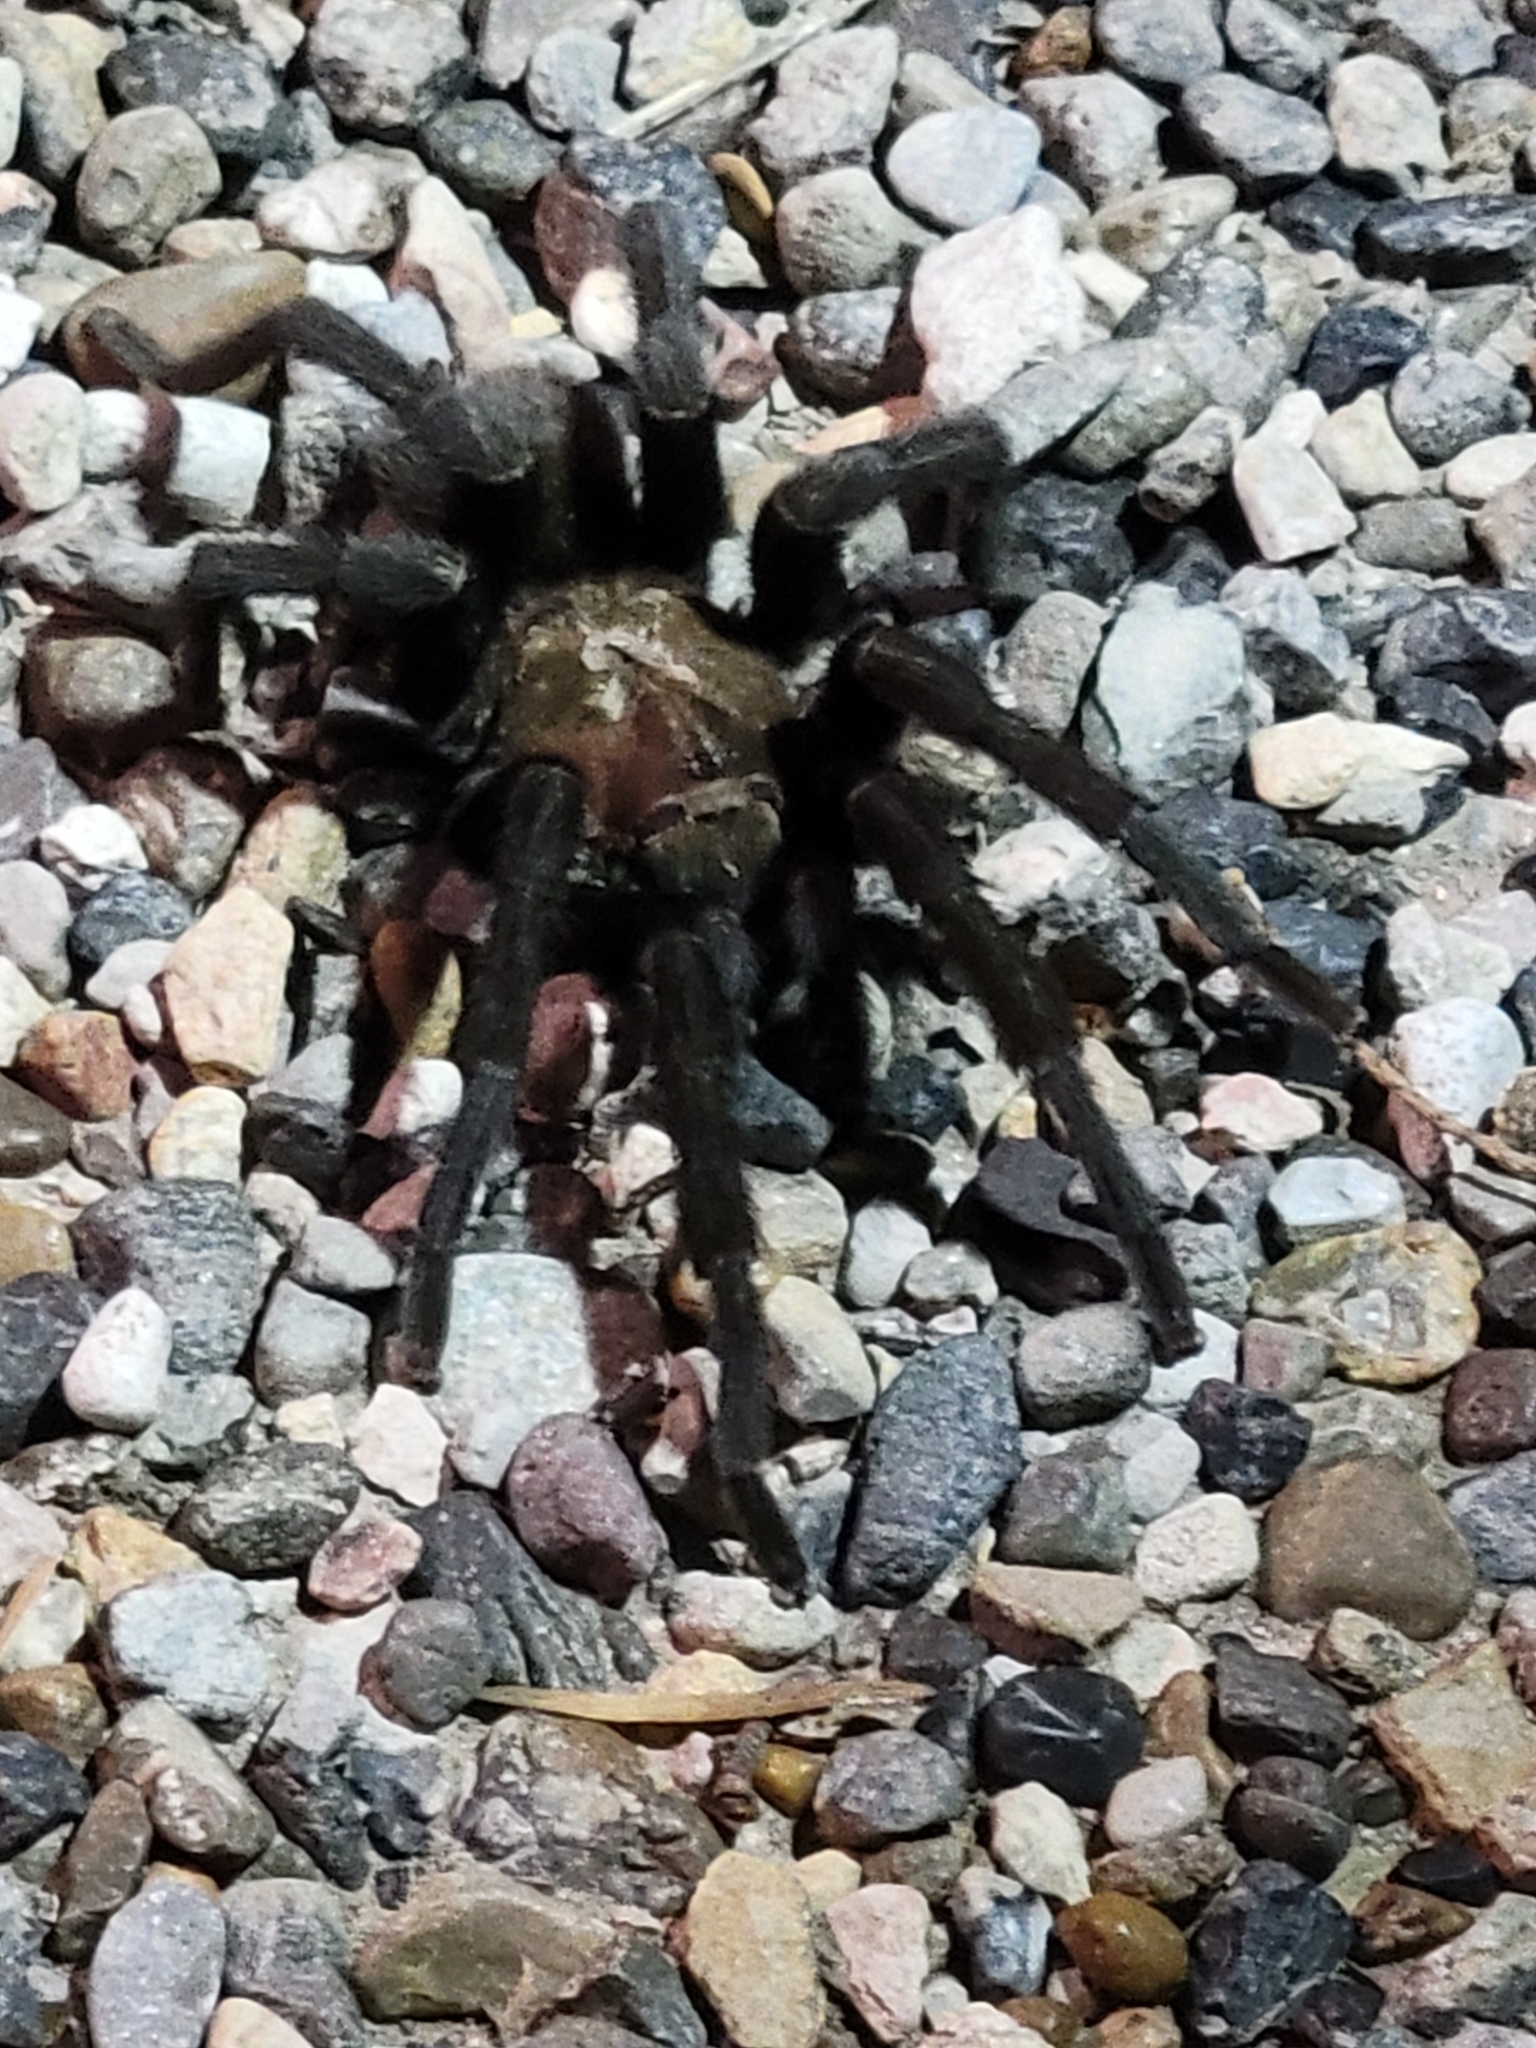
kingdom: Animalia
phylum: Arthropoda
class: Arachnida
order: Araneae
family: Theraphosidae
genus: Aphonopelma
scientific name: Aphonopelma anax
